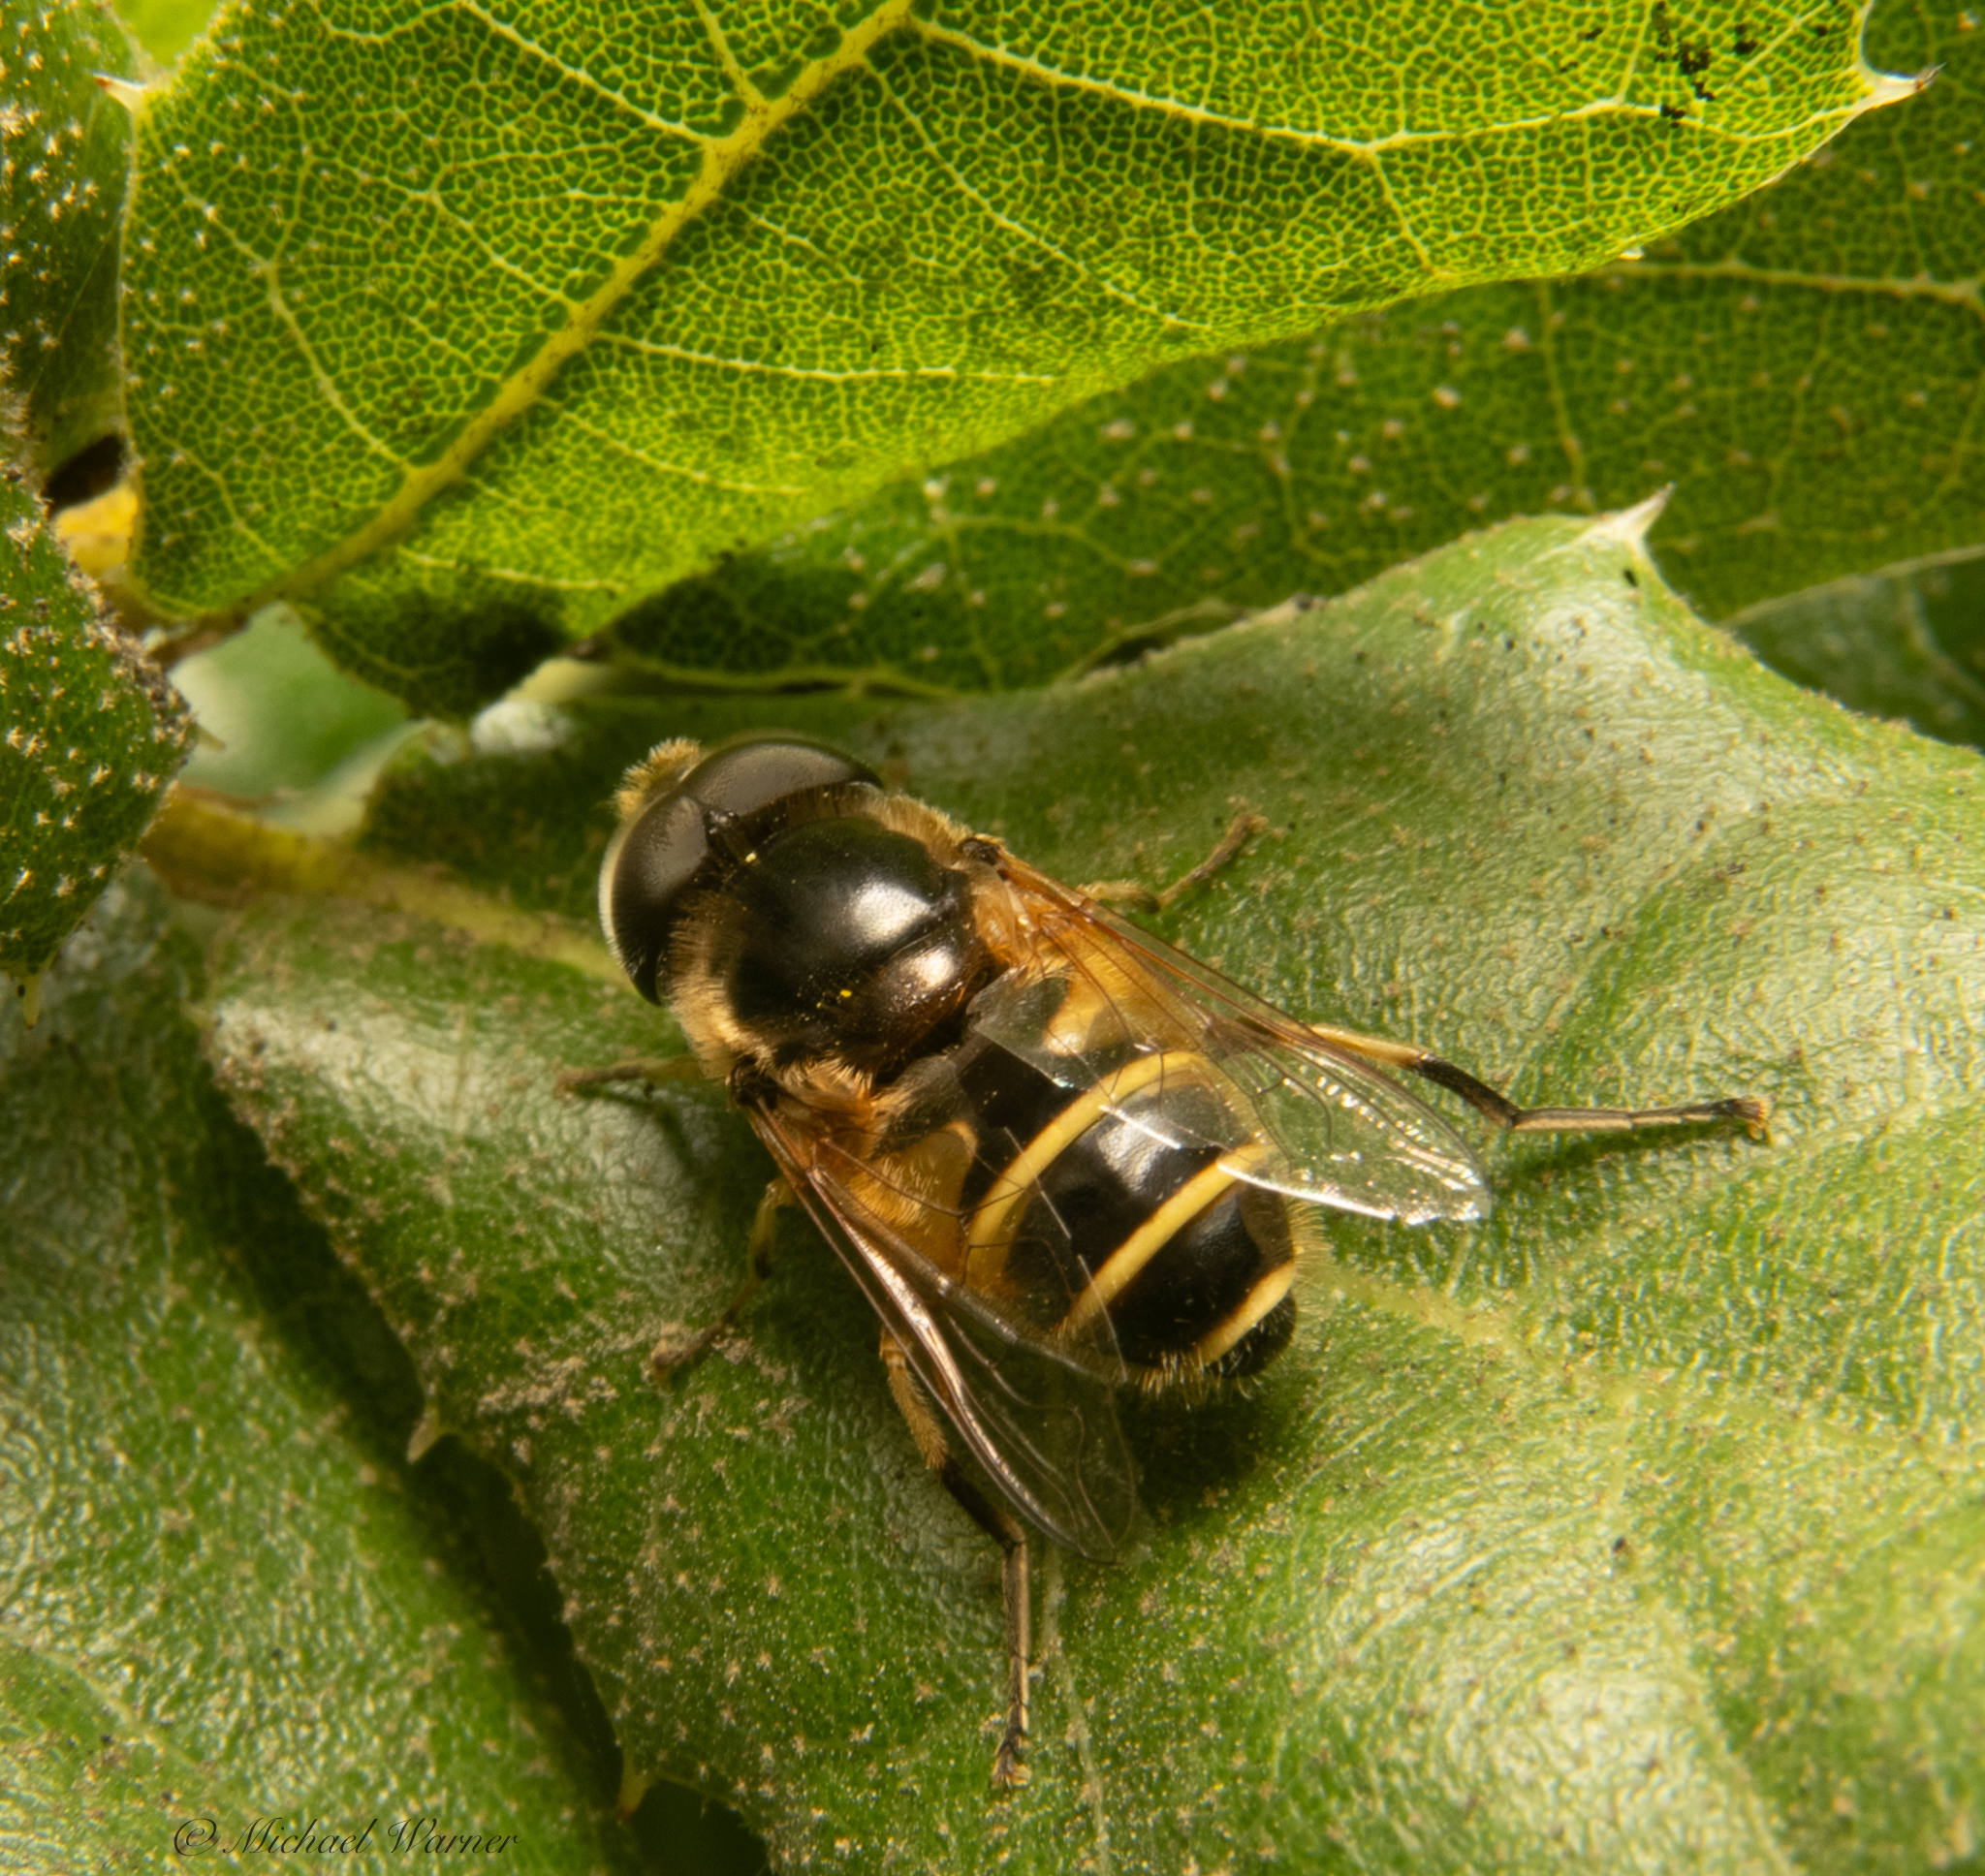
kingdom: Animalia
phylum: Arthropoda
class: Insecta
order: Diptera
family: Syrphidae
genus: Eristalis
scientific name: Eristalis hirta
